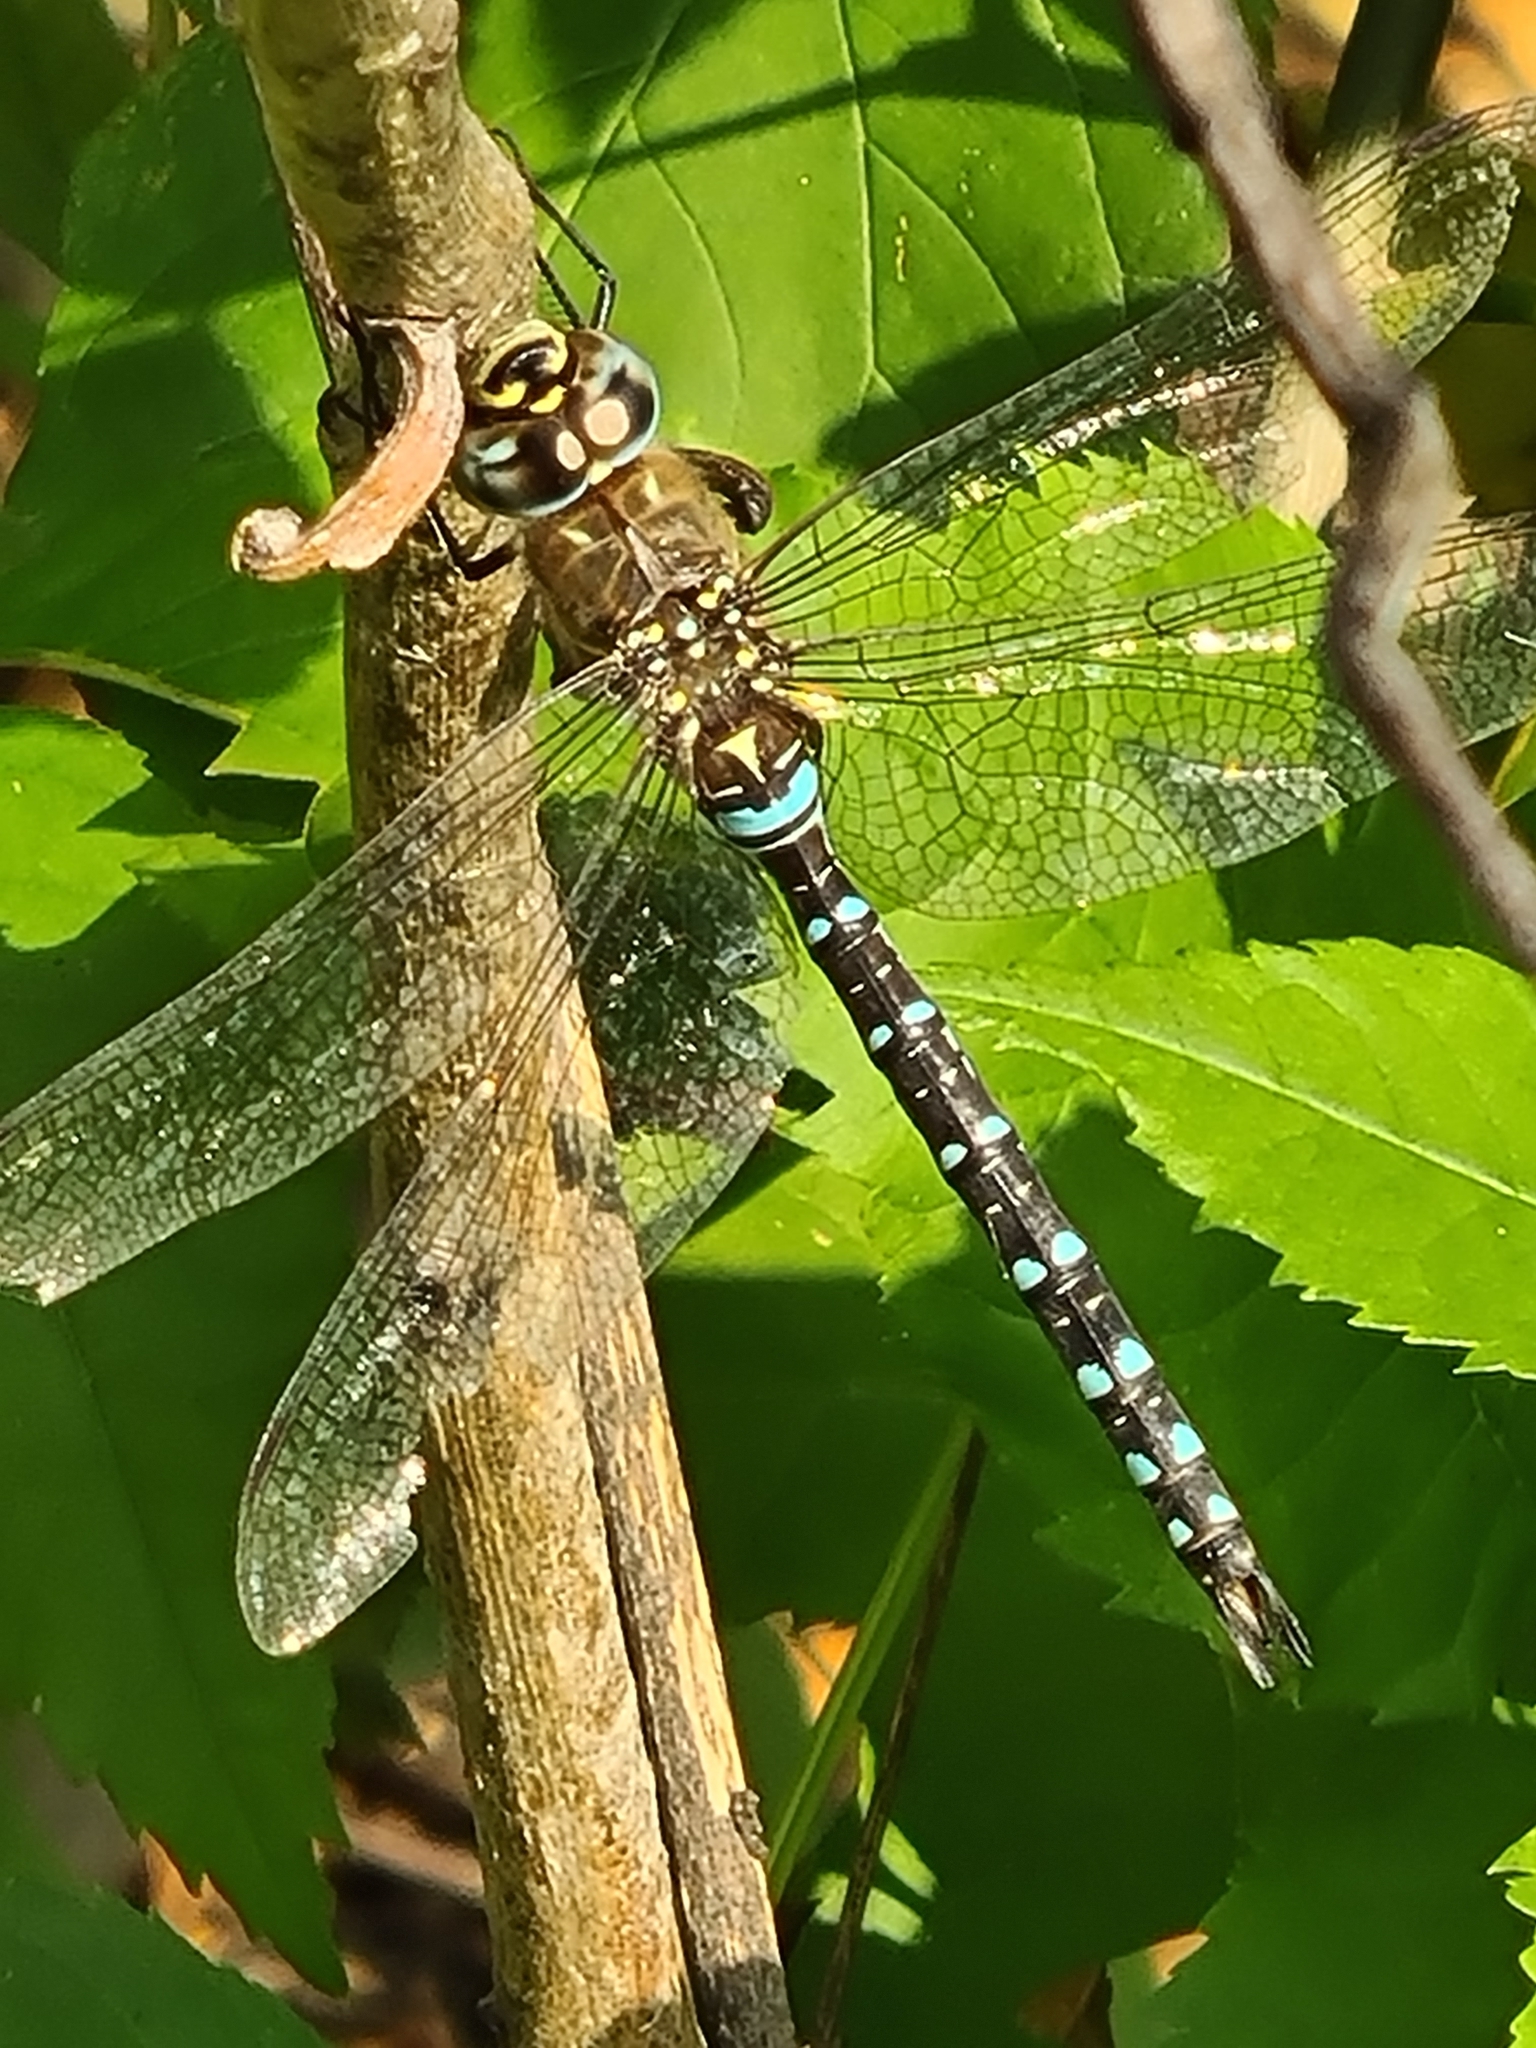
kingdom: Animalia
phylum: Arthropoda
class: Insecta
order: Odonata
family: Aeshnidae
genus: Aeshna
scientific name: Aeshna mixta
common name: Migrant hawker
